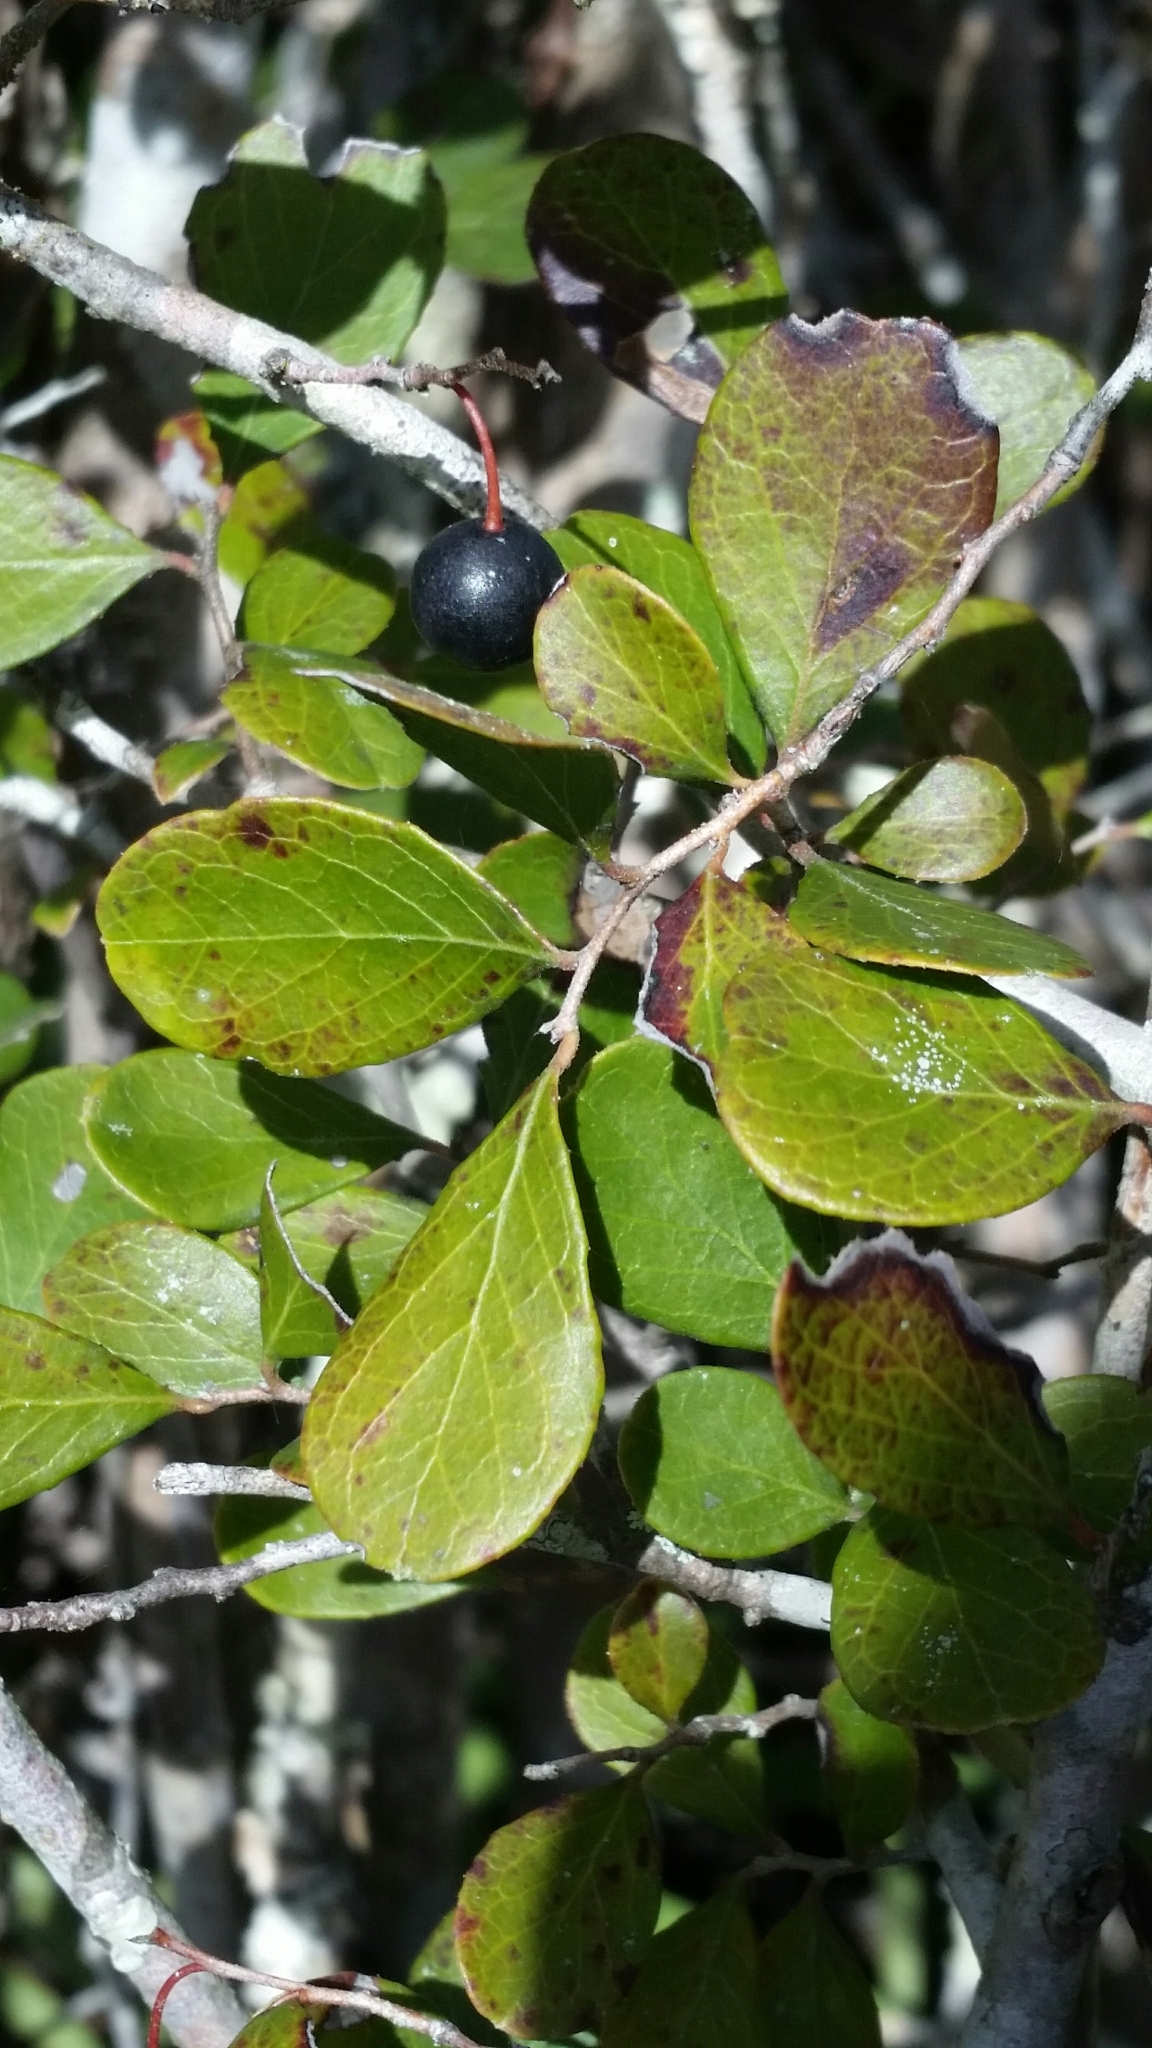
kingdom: Plantae
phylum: Tracheophyta
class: Magnoliopsida
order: Ericales
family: Ericaceae
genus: Vaccinium
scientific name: Vaccinium arboreum
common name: Farkleberry
